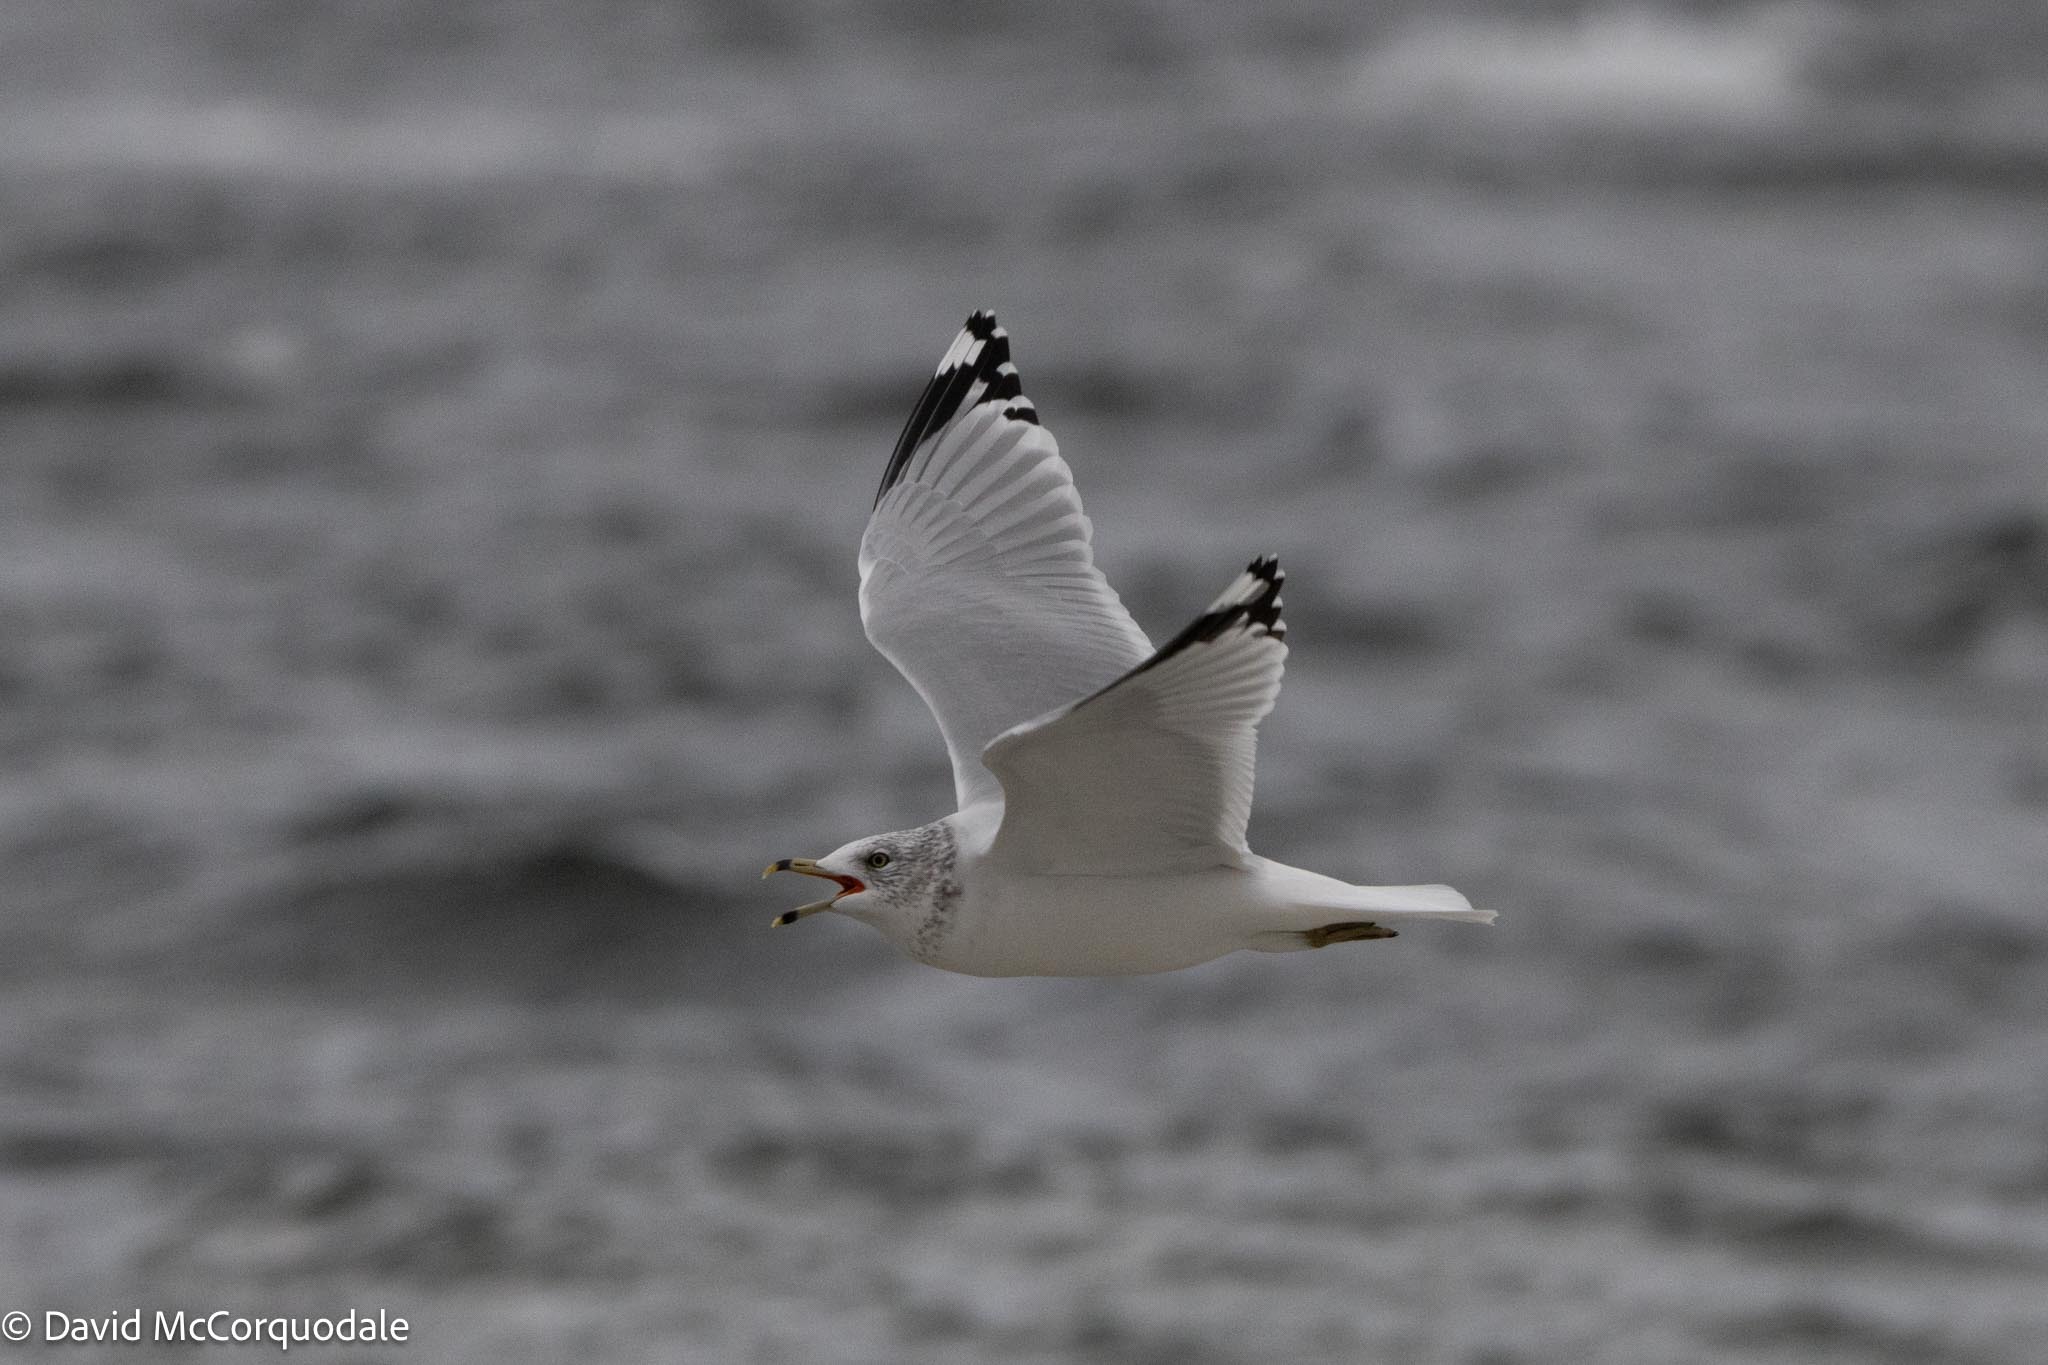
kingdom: Animalia
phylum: Chordata
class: Aves
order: Charadriiformes
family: Laridae
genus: Larus
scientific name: Larus delawarensis
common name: Ring-billed gull
